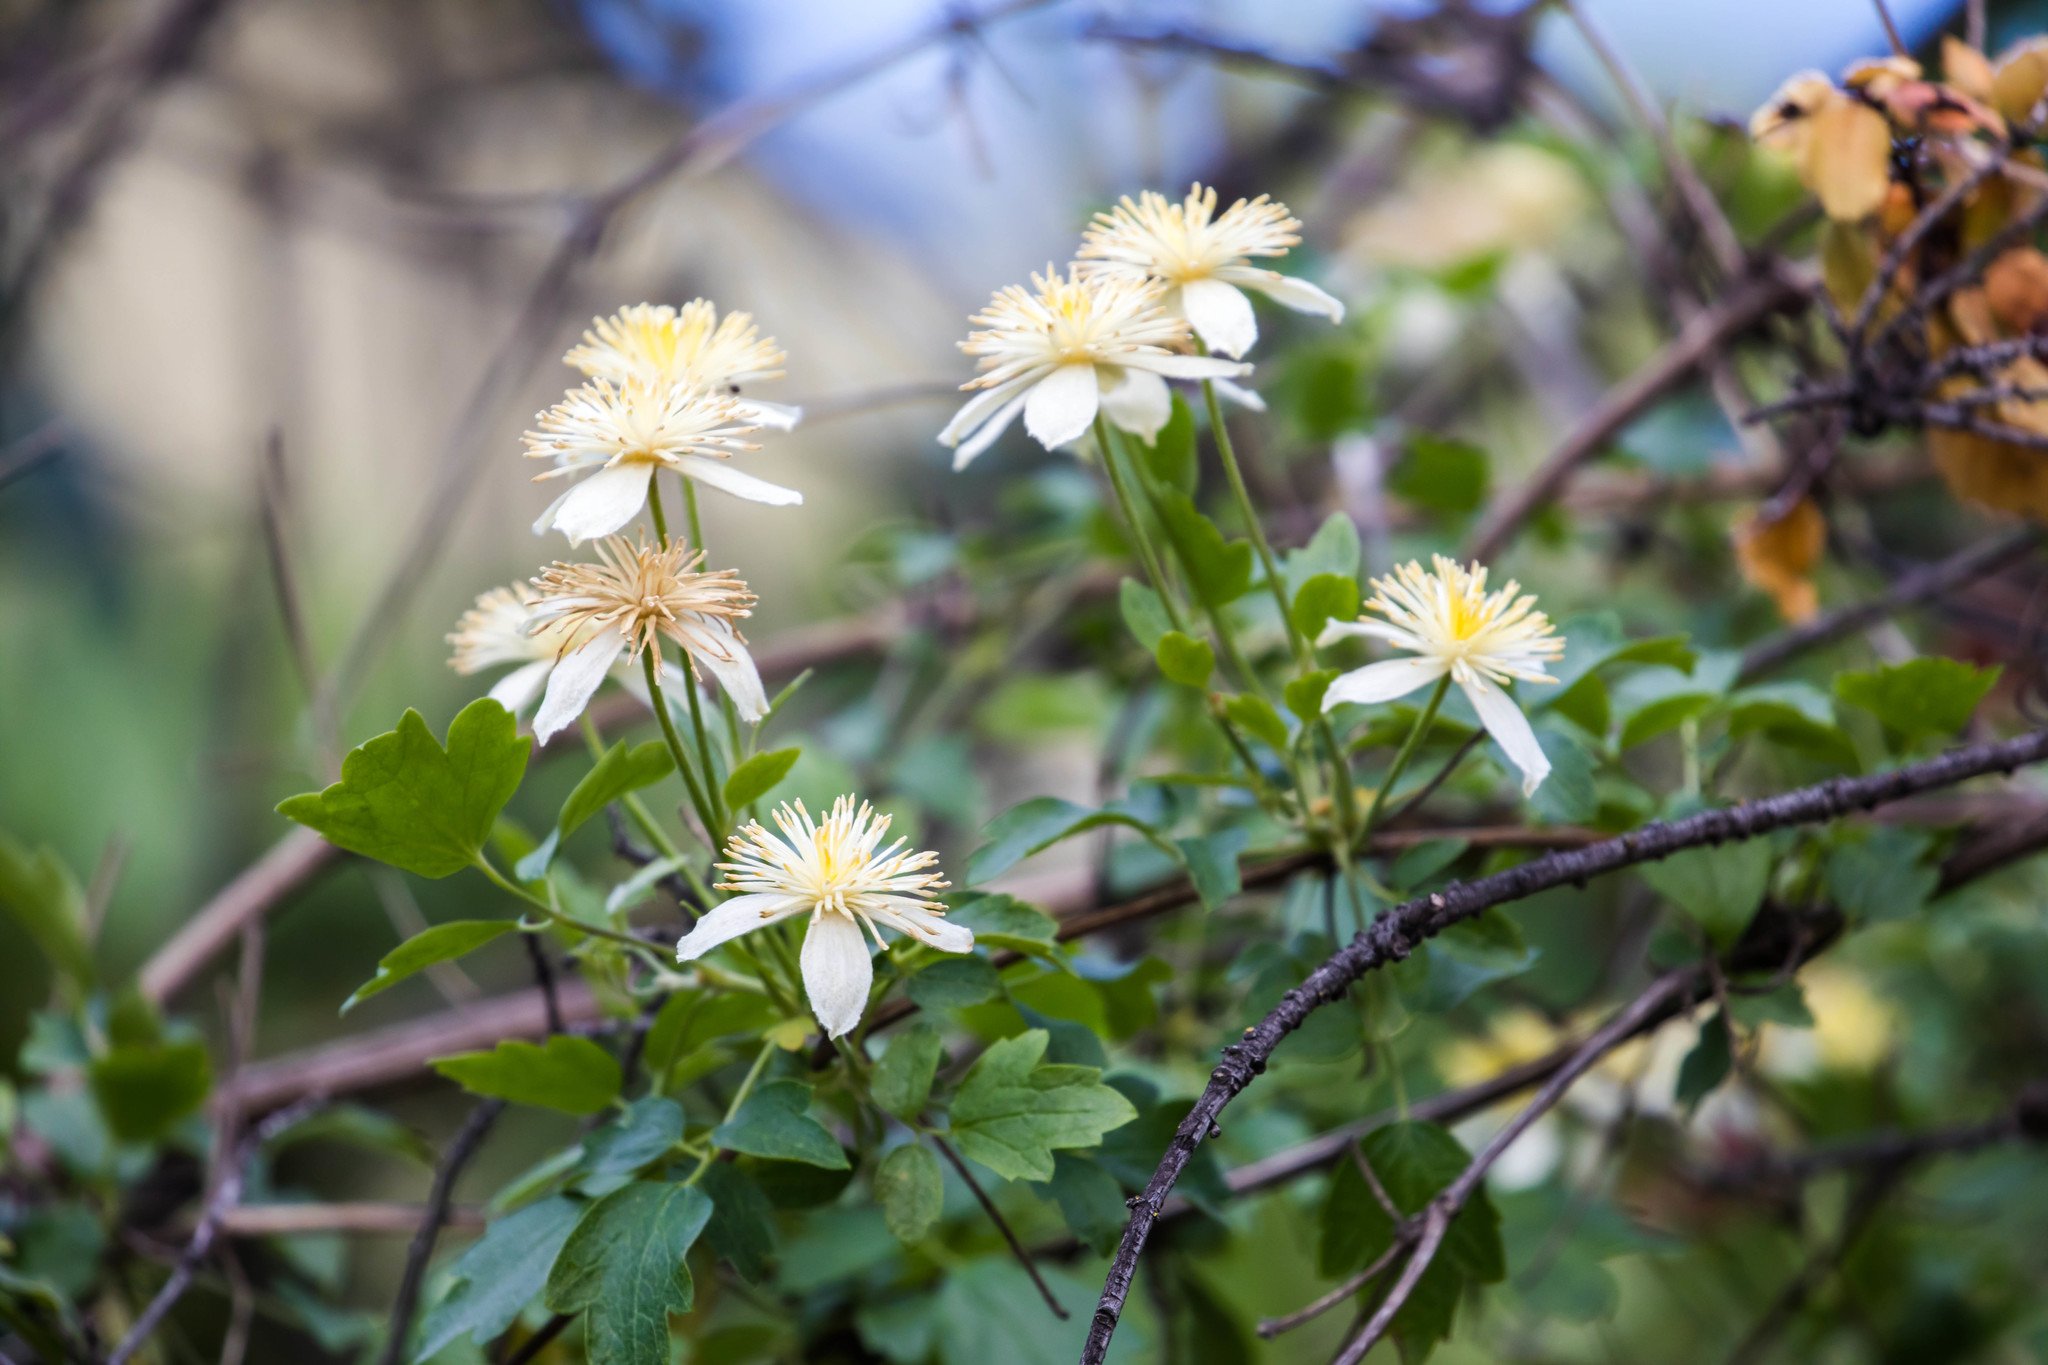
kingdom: Plantae
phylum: Tracheophyta
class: Magnoliopsida
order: Ranunculales
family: Ranunculaceae
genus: Clematis
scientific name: Clematis lasiantha
